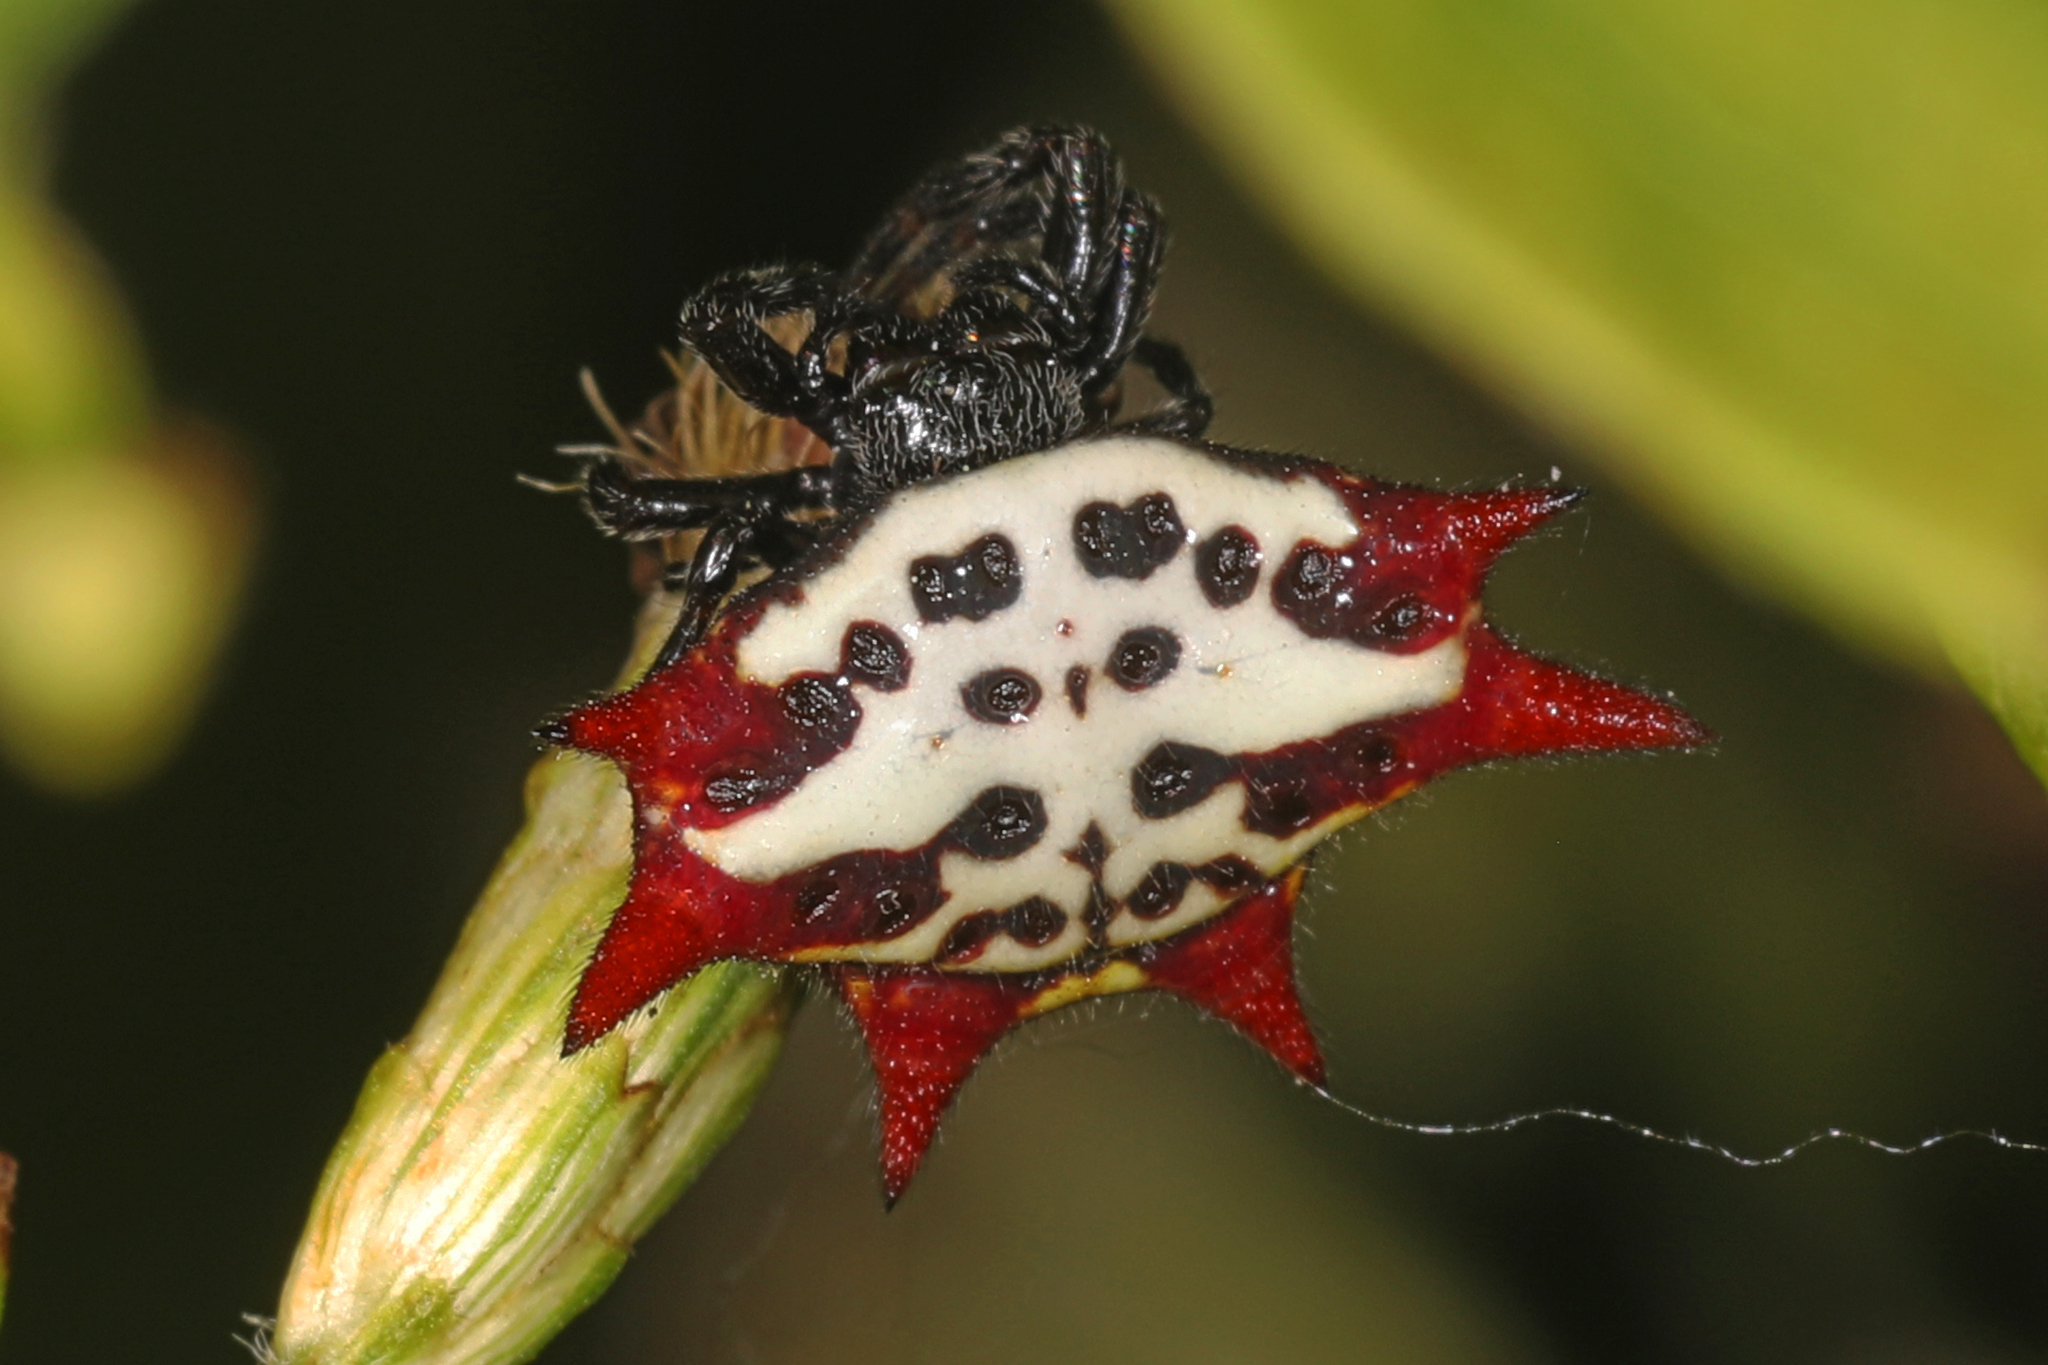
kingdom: Animalia
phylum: Arthropoda
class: Arachnida
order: Araneae
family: Araneidae
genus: Gasteracantha
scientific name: Gasteracantha cancriformis
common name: Orb weavers
